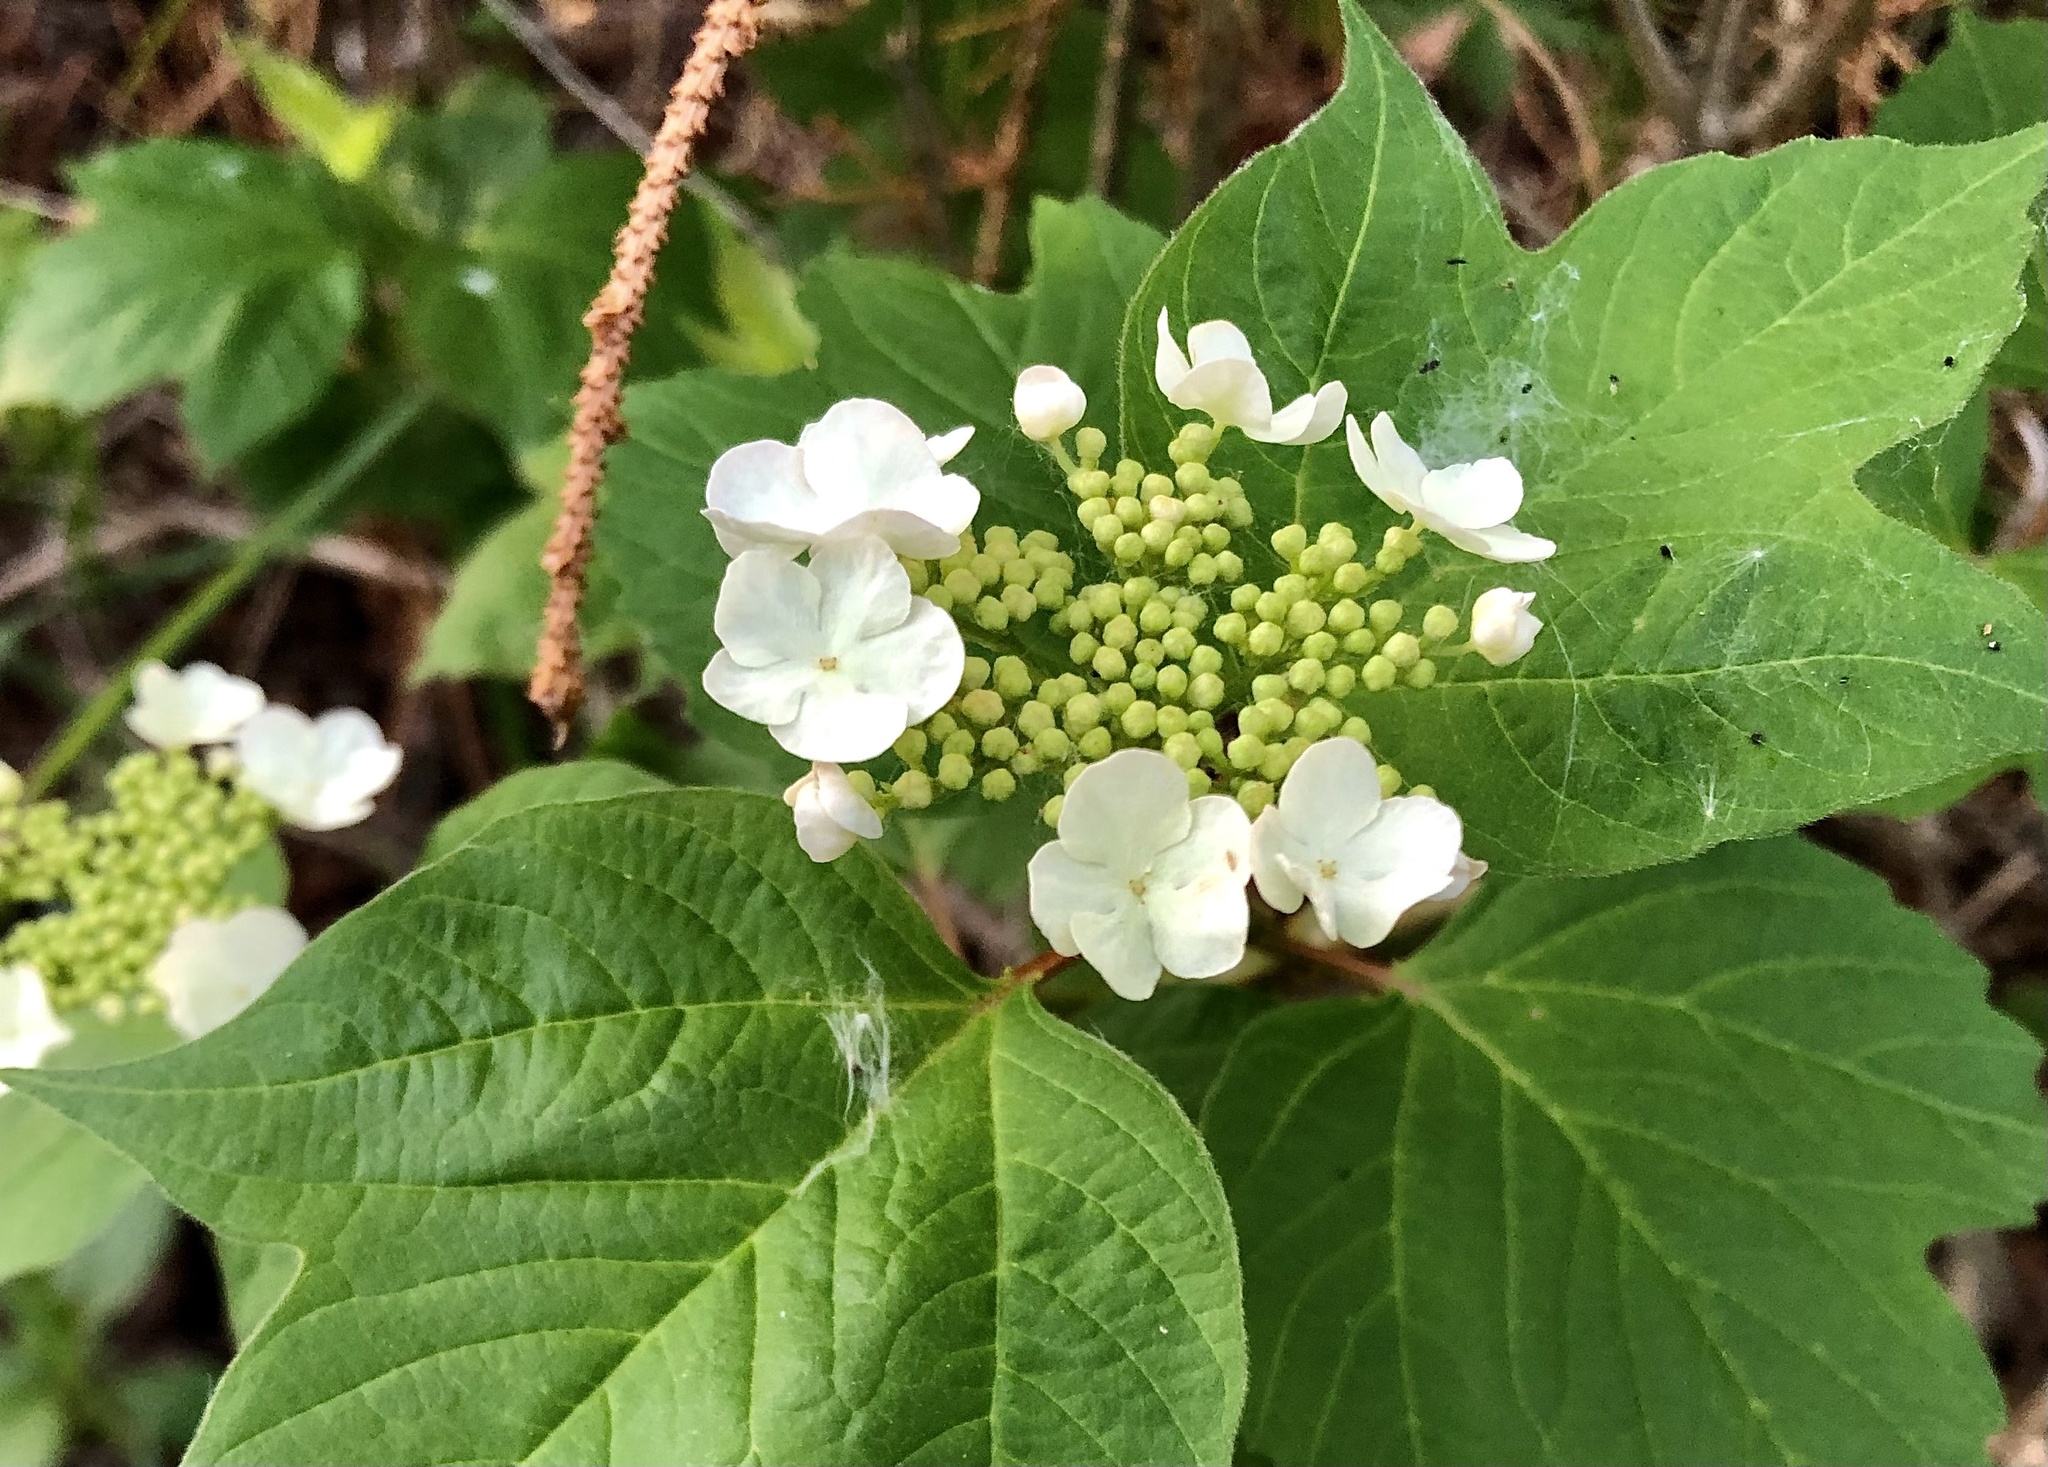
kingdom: Plantae
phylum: Tracheophyta
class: Magnoliopsida
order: Dipsacales
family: Viburnaceae
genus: Viburnum
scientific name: Viburnum trilobum
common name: American cranberrybush
